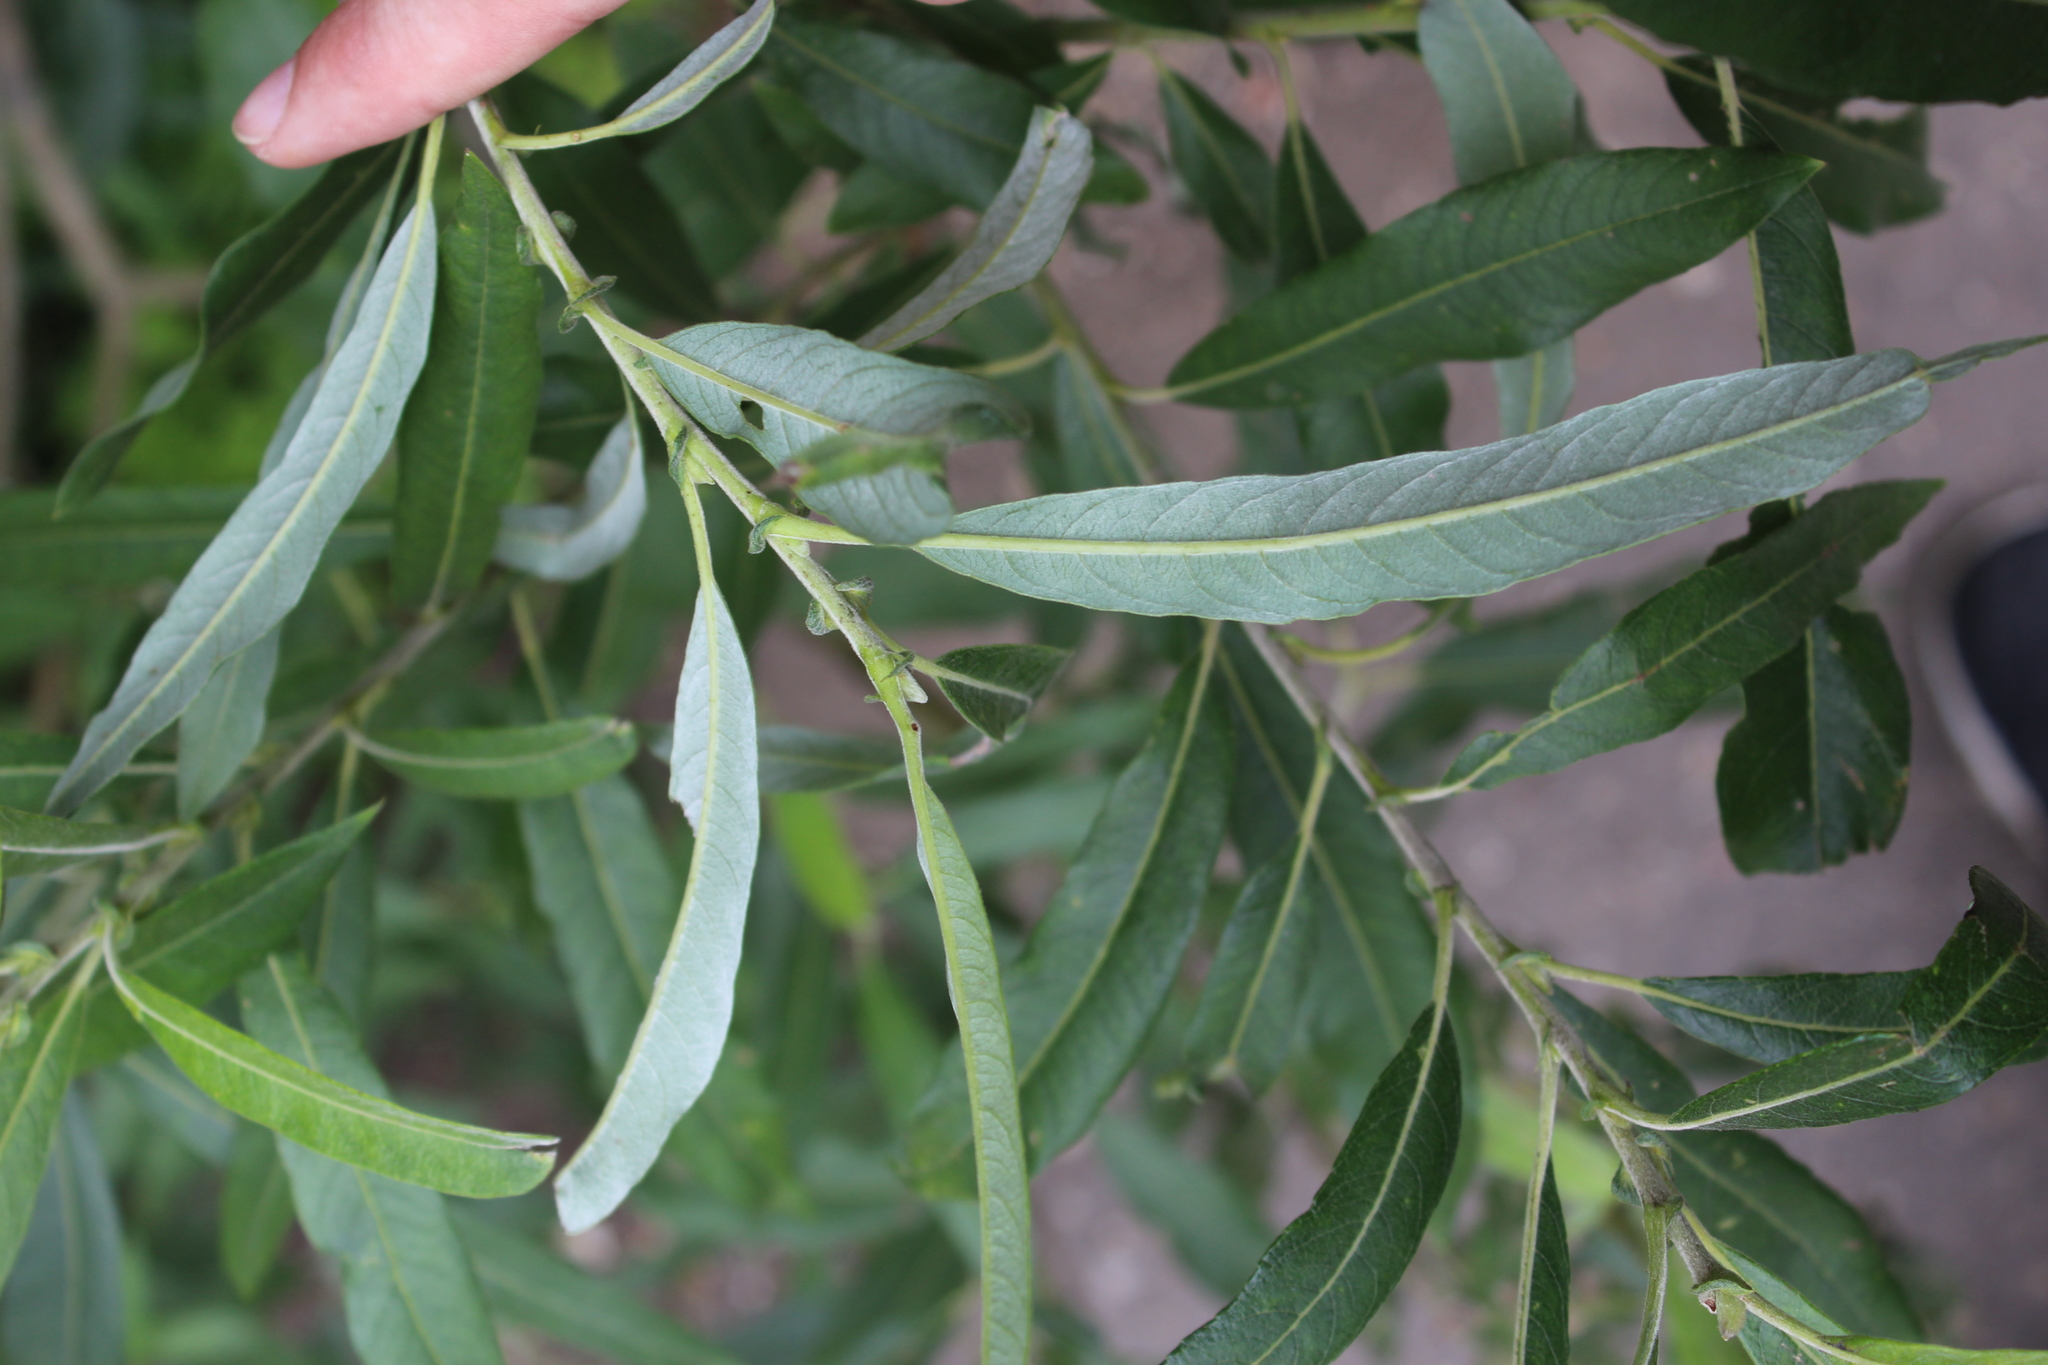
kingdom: Plantae
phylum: Tracheophyta
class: Magnoliopsida
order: Malpighiales
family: Salicaceae
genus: Salix
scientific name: Salix gmelinii
